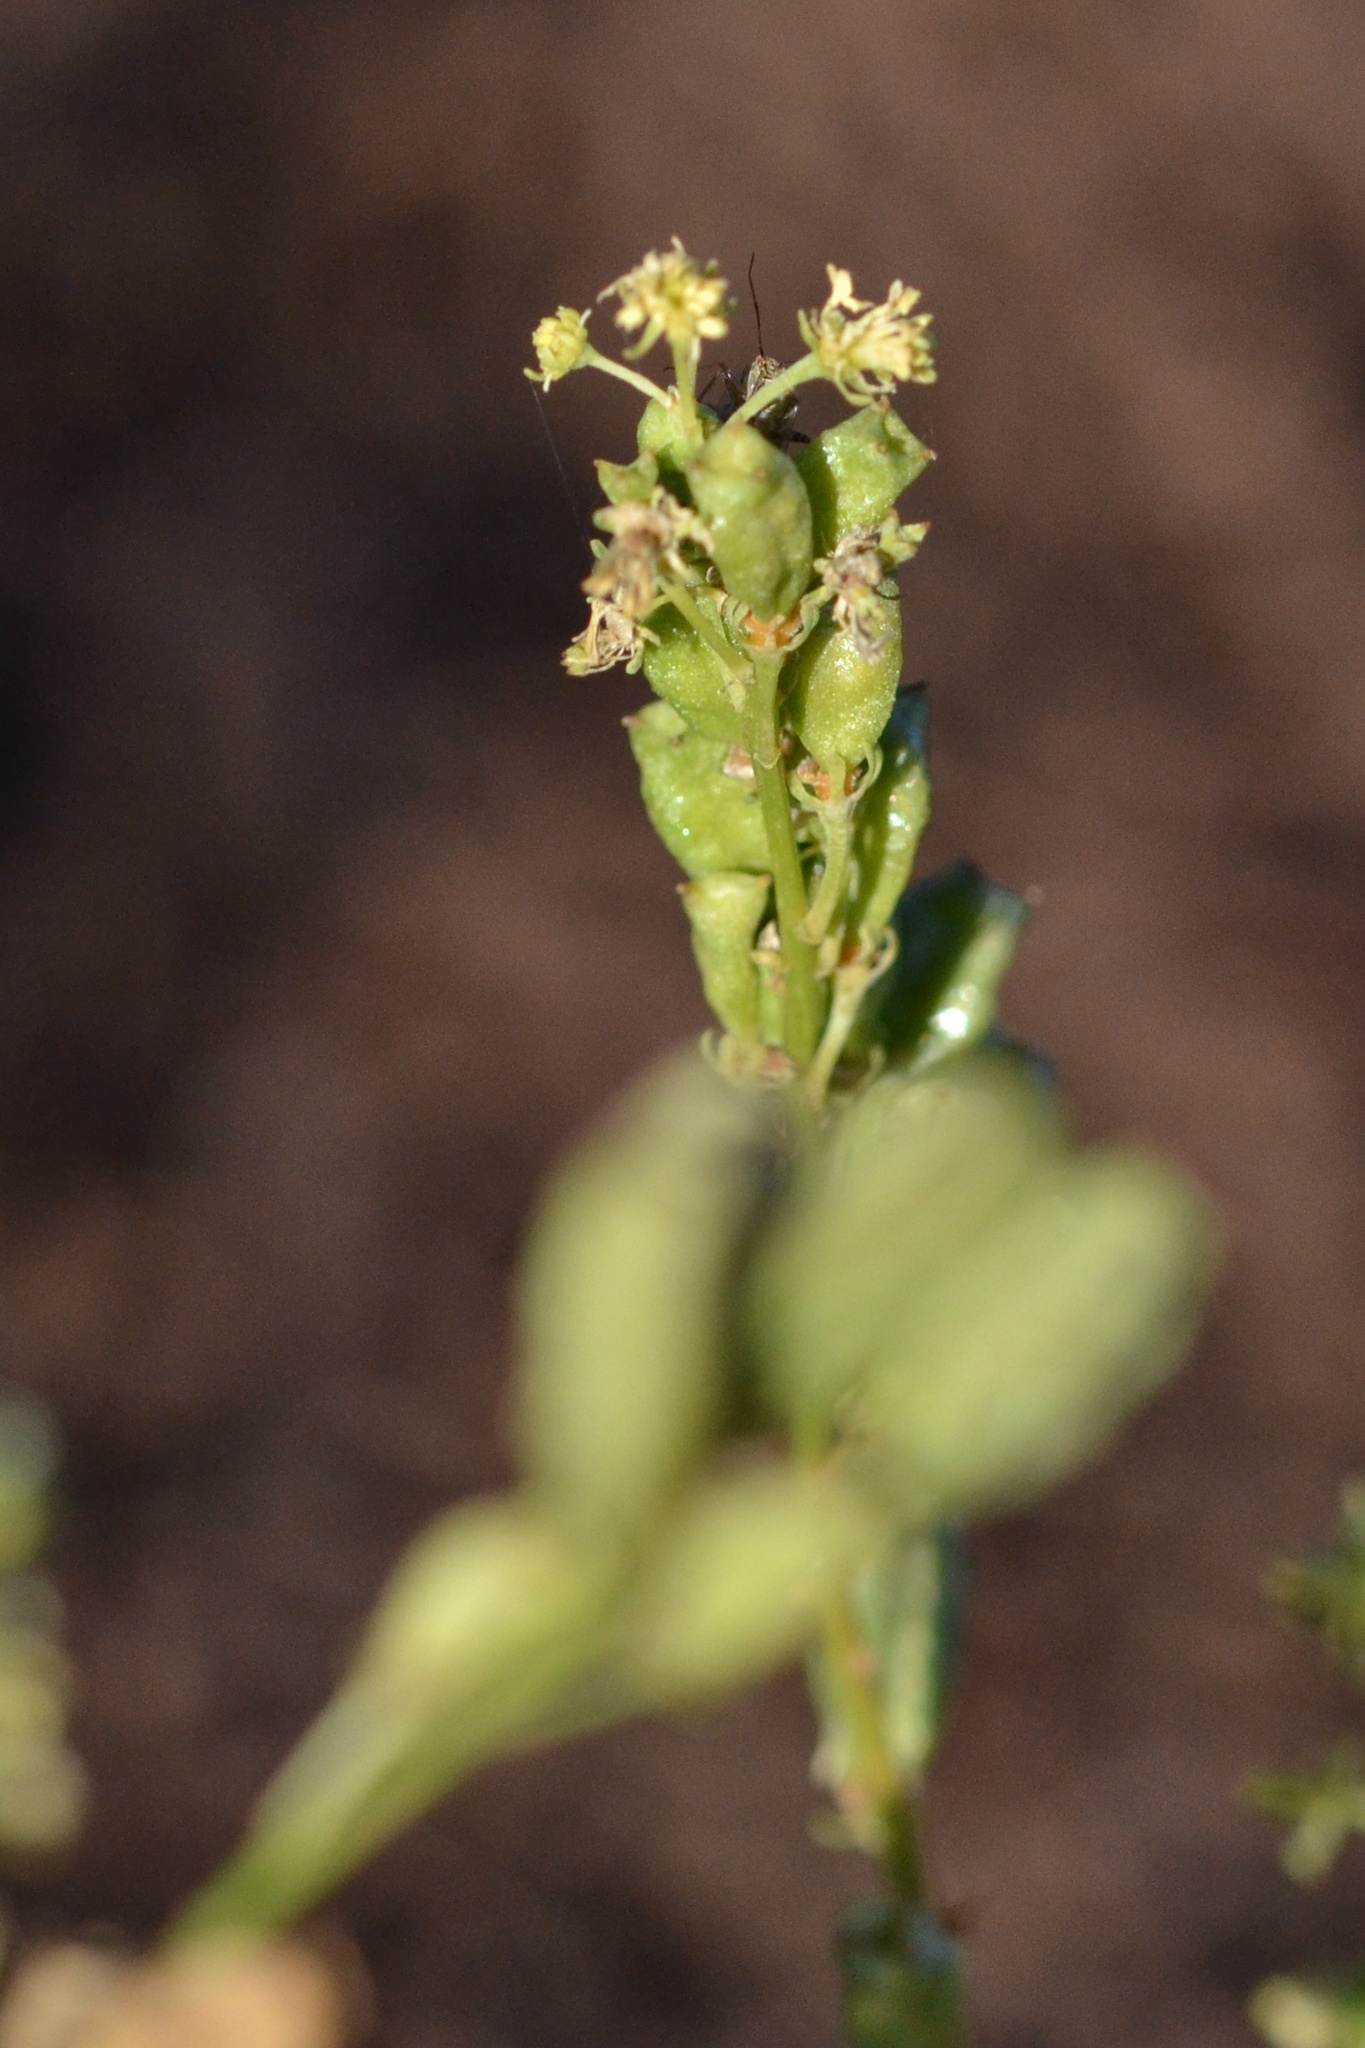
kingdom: Plantae
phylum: Tracheophyta
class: Magnoliopsida
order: Brassicales
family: Resedaceae
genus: Reseda
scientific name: Reseda lutea
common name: Wild mignonette
